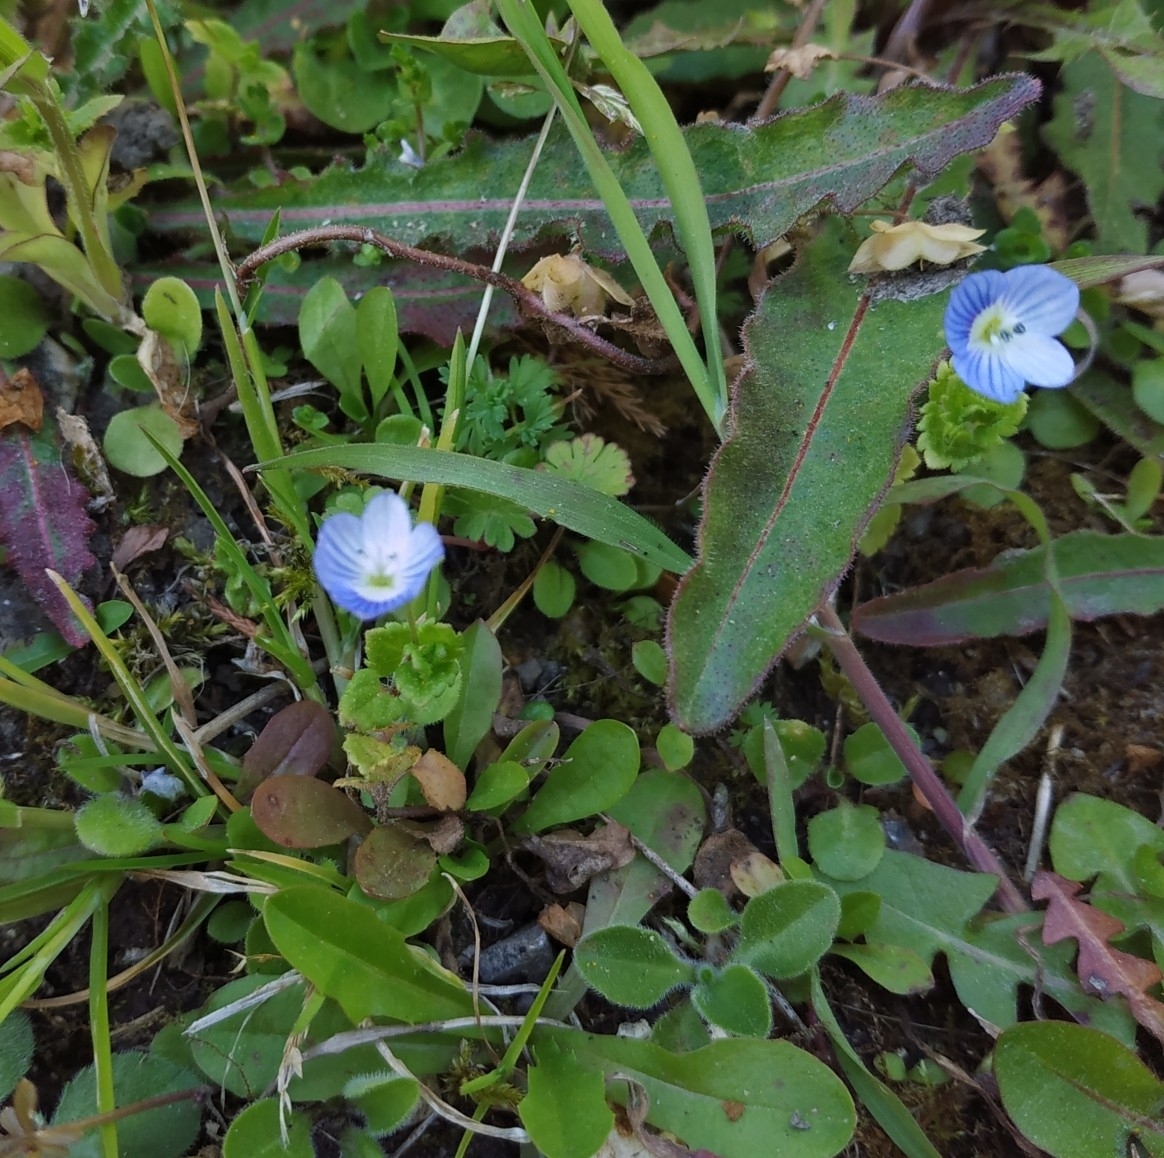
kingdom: Plantae
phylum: Tracheophyta
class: Magnoliopsida
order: Lamiales
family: Plantaginaceae
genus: Veronica
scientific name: Veronica persica
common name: Common field-speedwell
